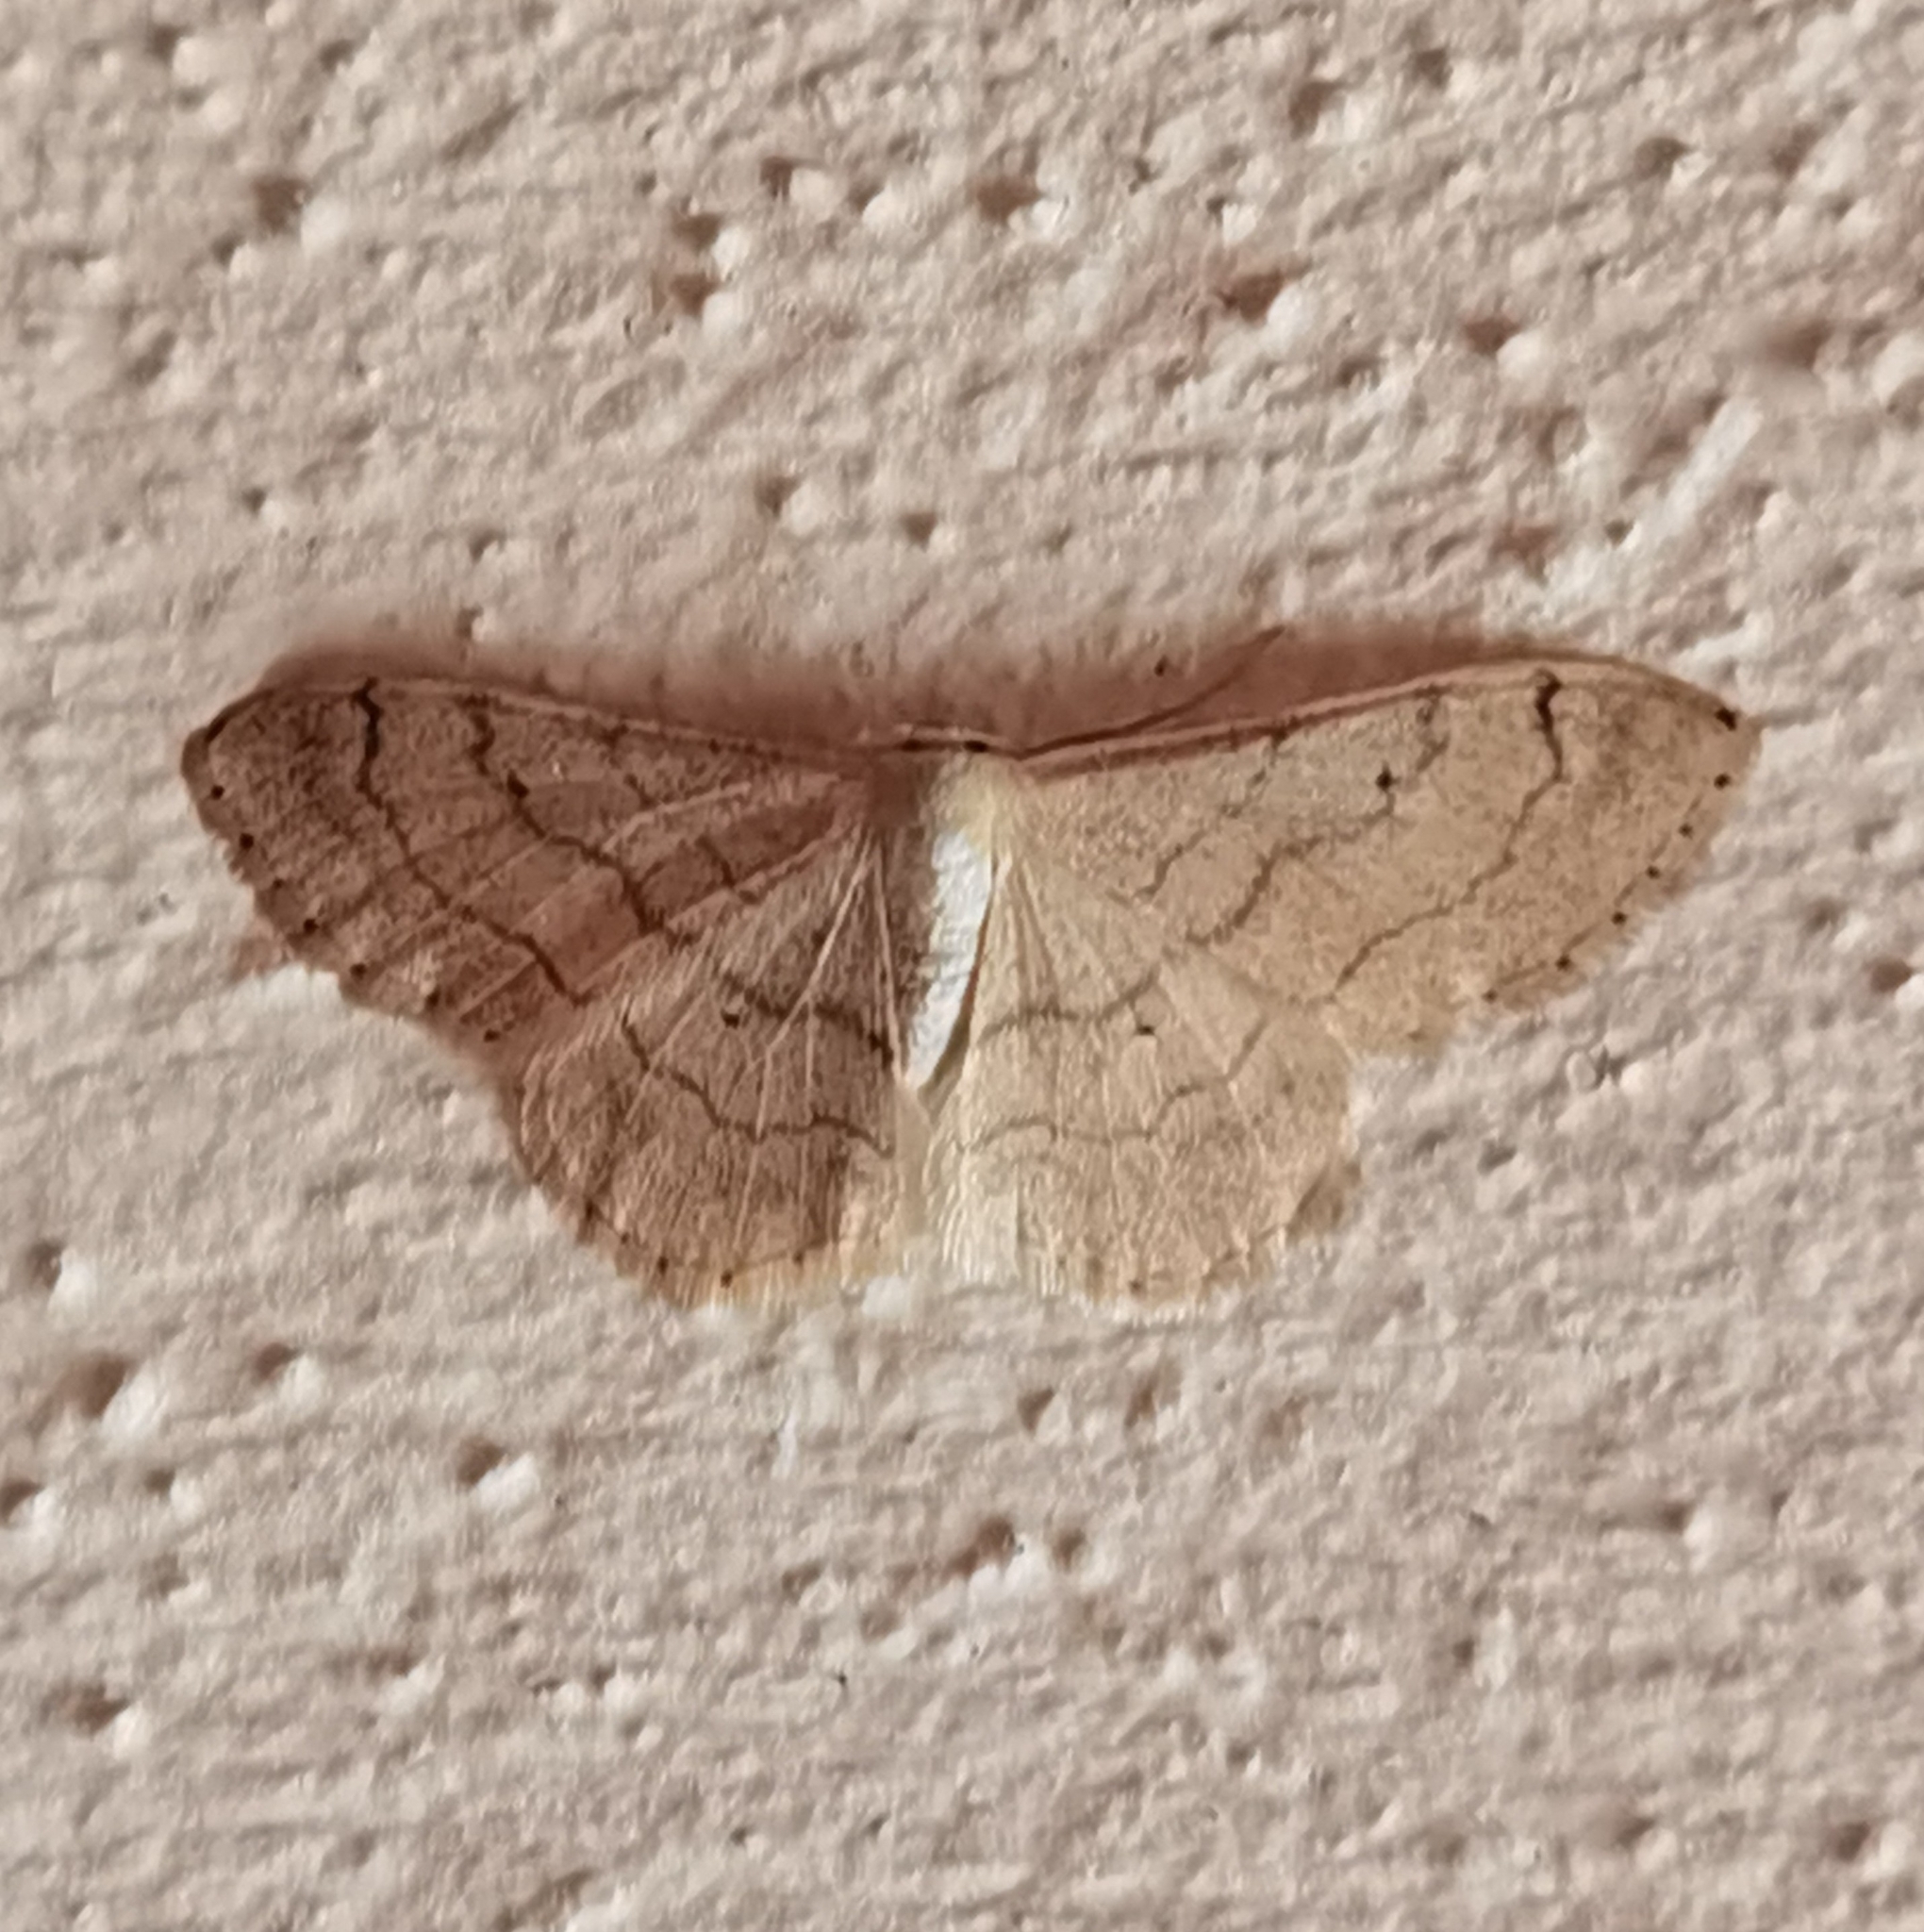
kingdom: Animalia
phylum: Arthropoda
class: Insecta
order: Lepidoptera
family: Geometridae
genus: Idaea
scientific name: Idaea aversata
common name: Riband wave
